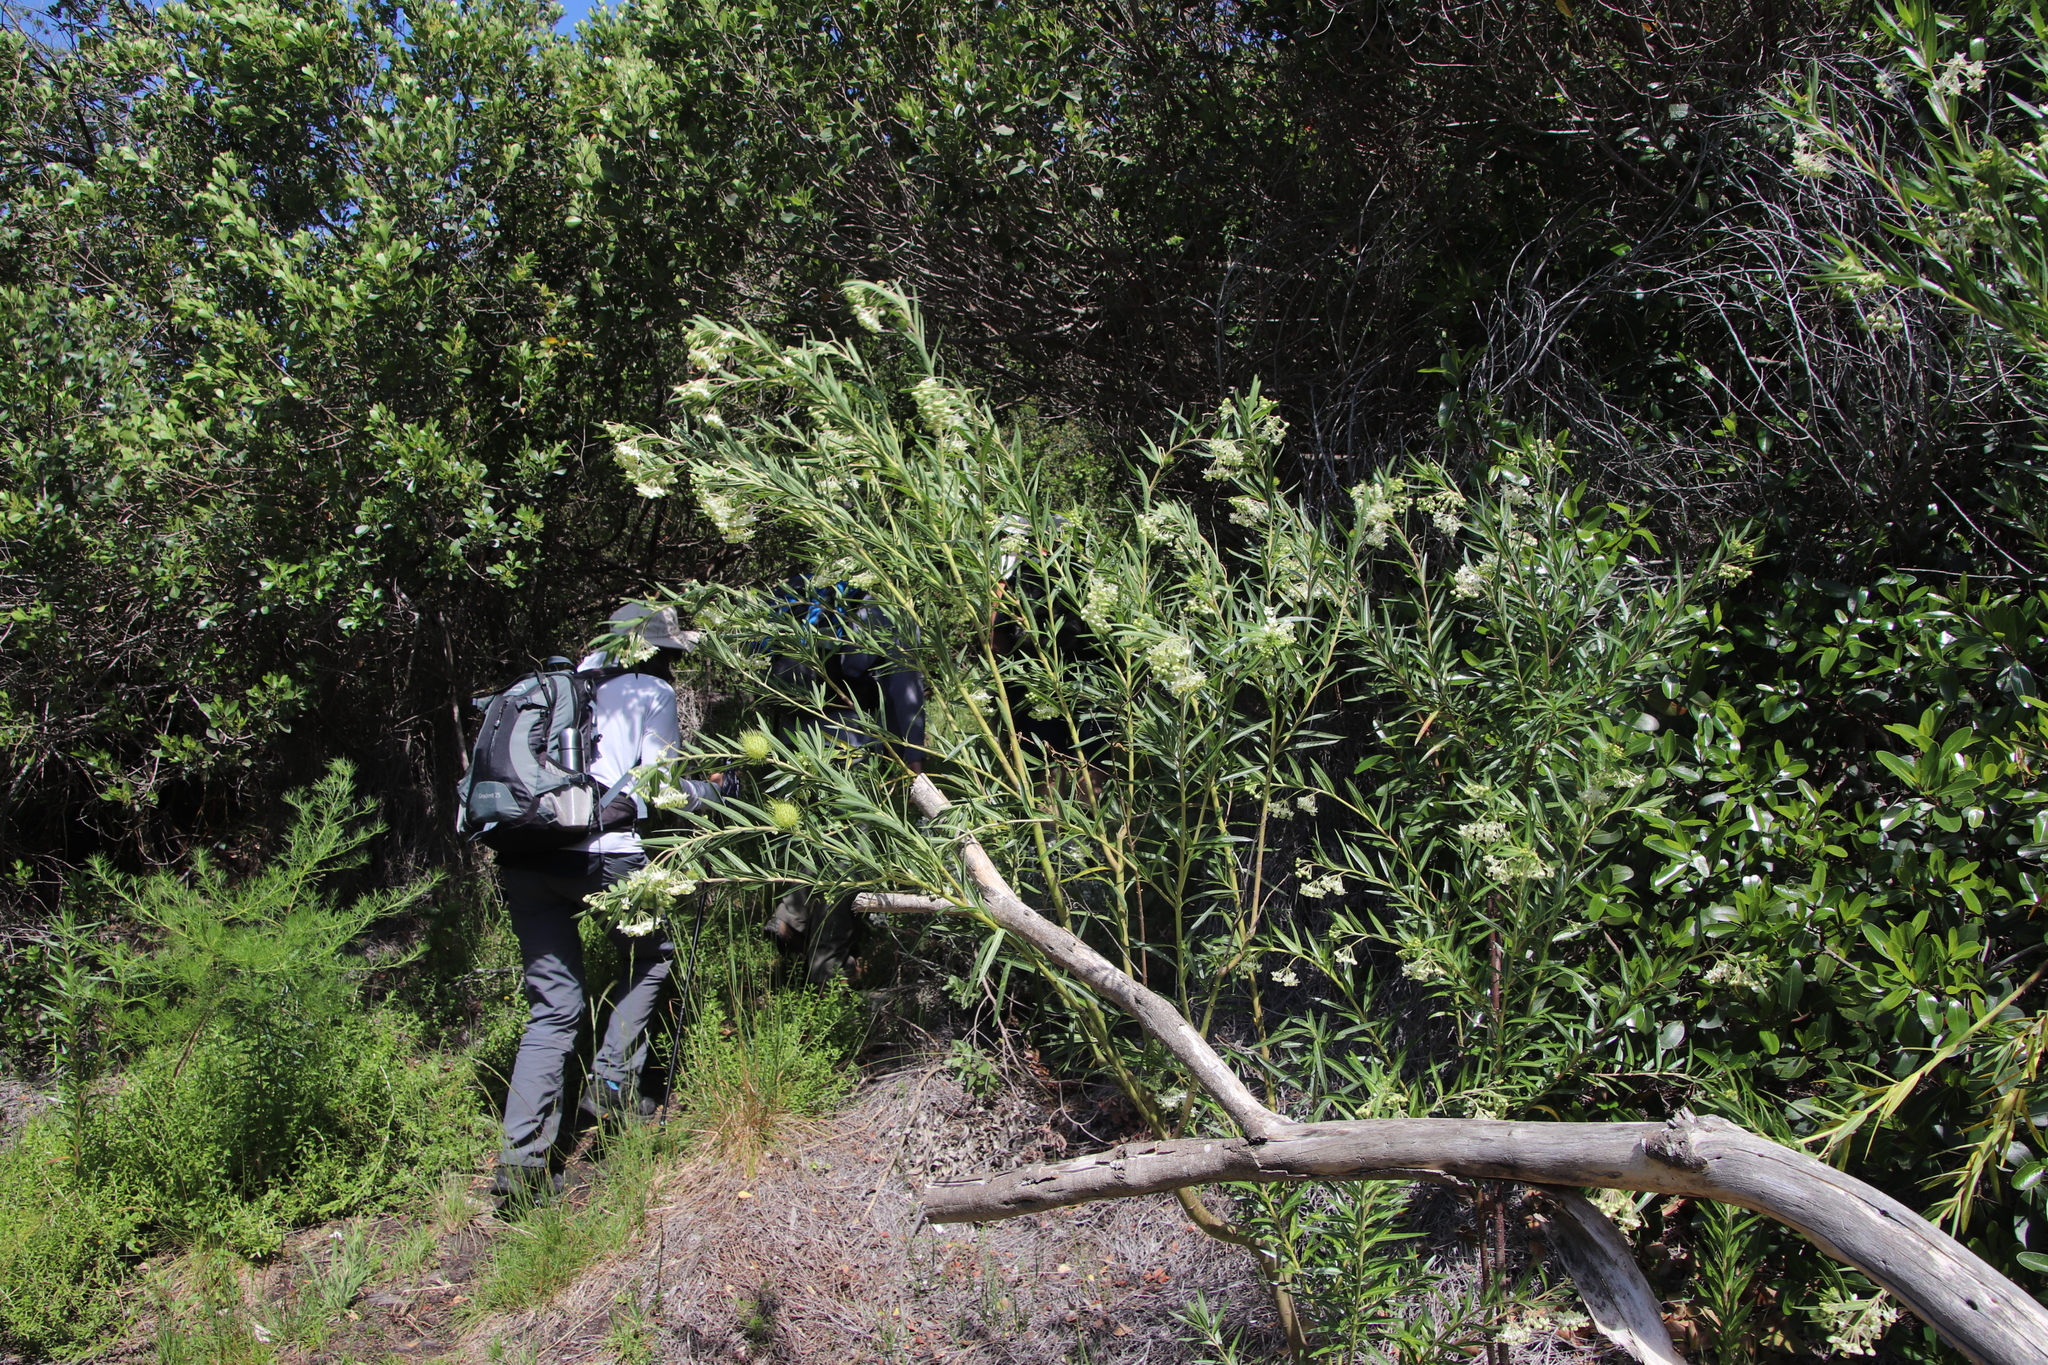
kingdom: Plantae
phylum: Tracheophyta
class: Magnoliopsida
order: Gentianales
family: Apocynaceae
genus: Gomphocarpus
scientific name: Gomphocarpus fruticosus
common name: Milkweed
